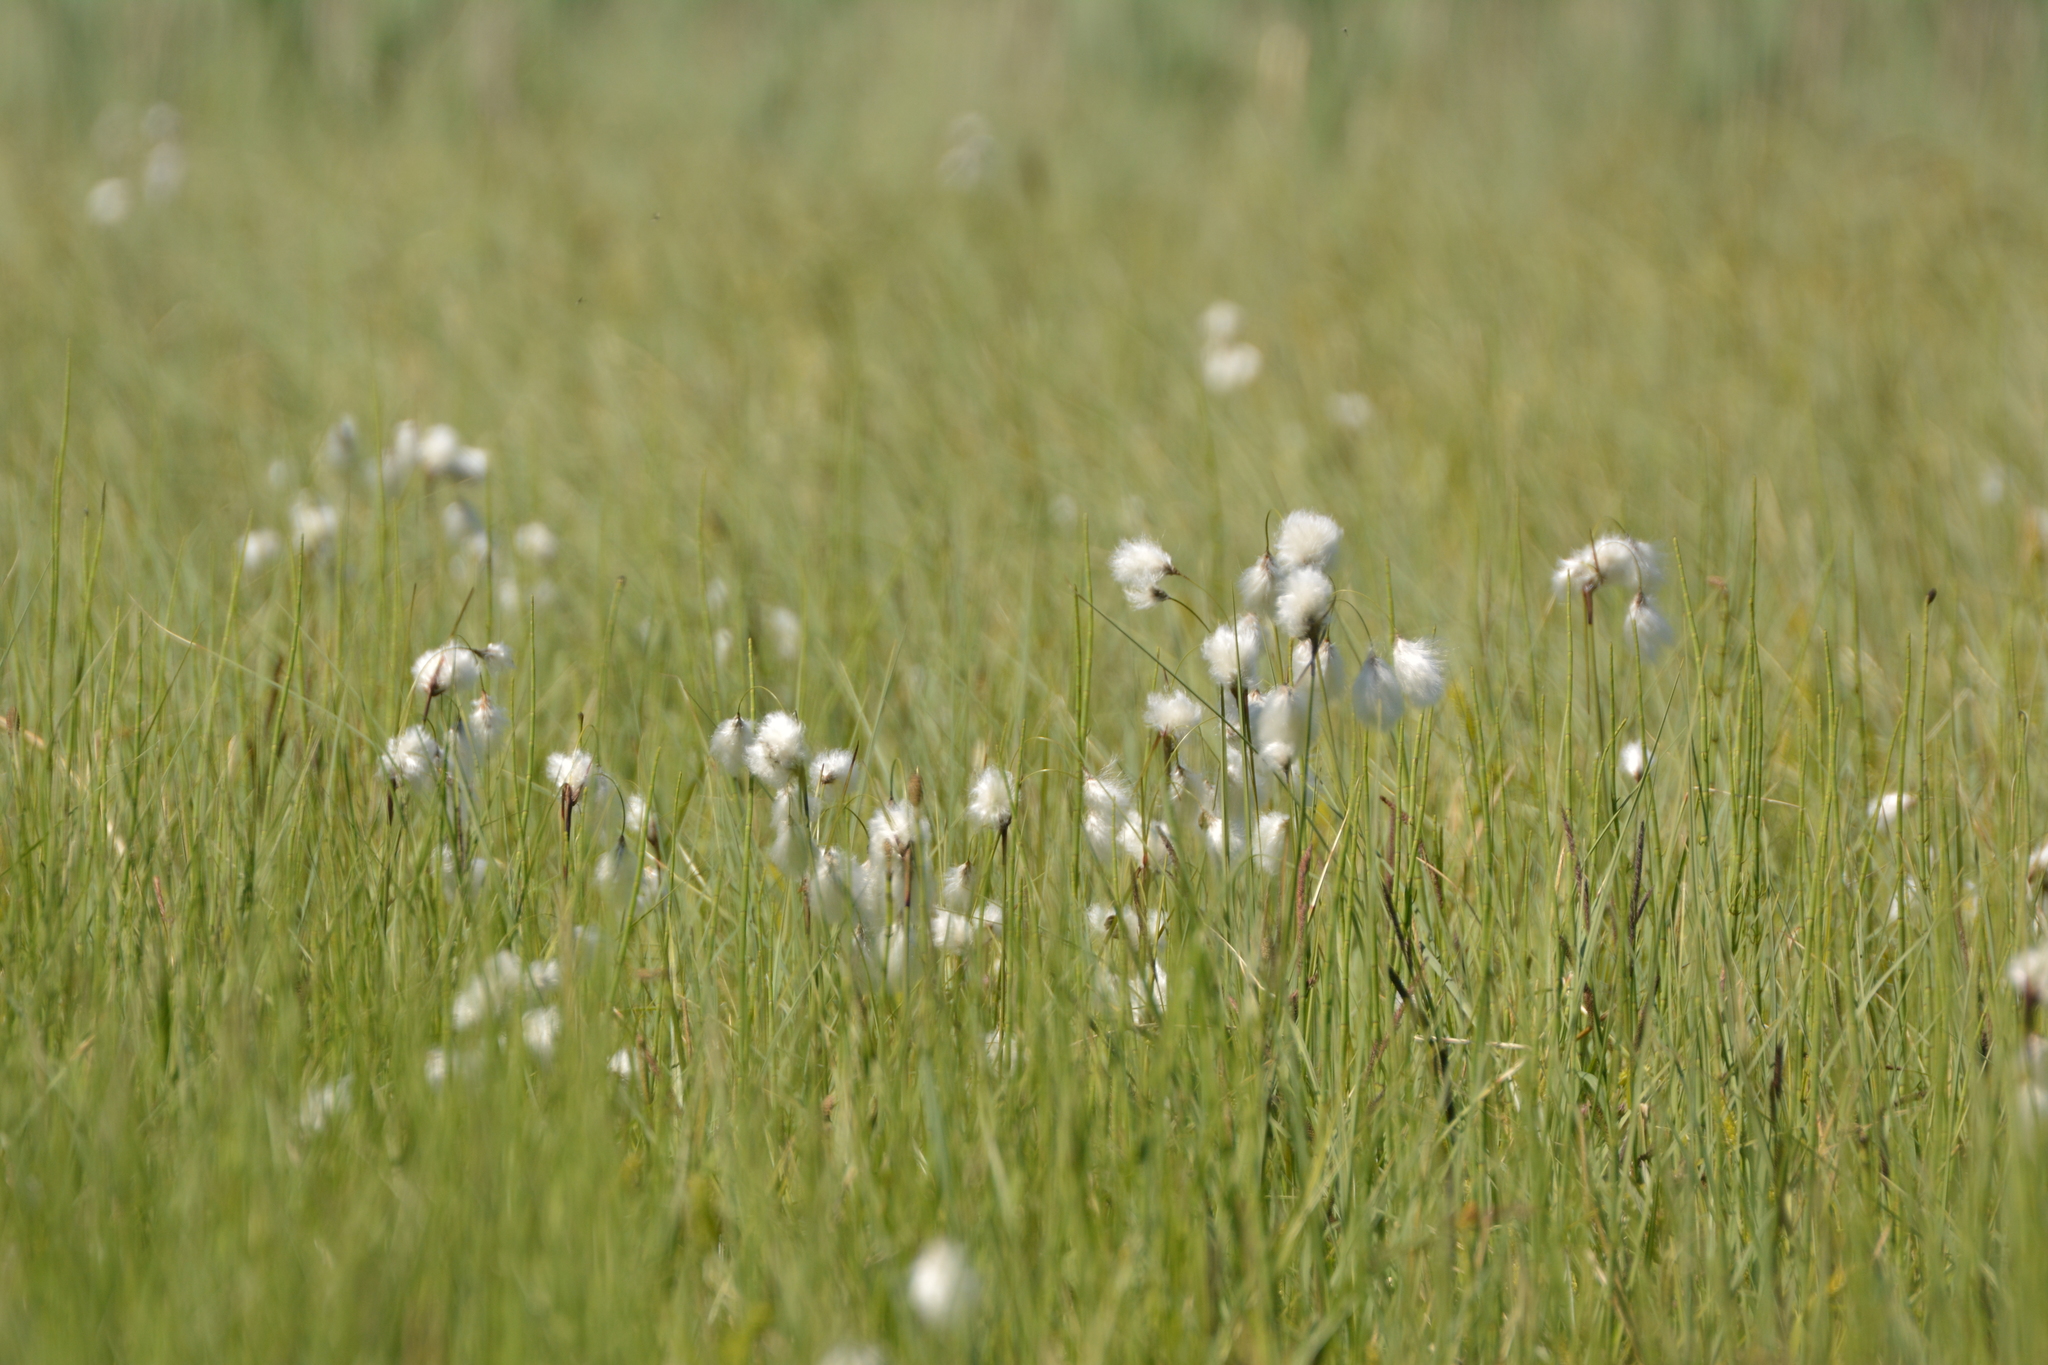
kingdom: Plantae
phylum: Tracheophyta
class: Liliopsida
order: Poales
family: Cyperaceae
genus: Eriophorum
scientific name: Eriophorum angustifolium
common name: Common cottongrass
